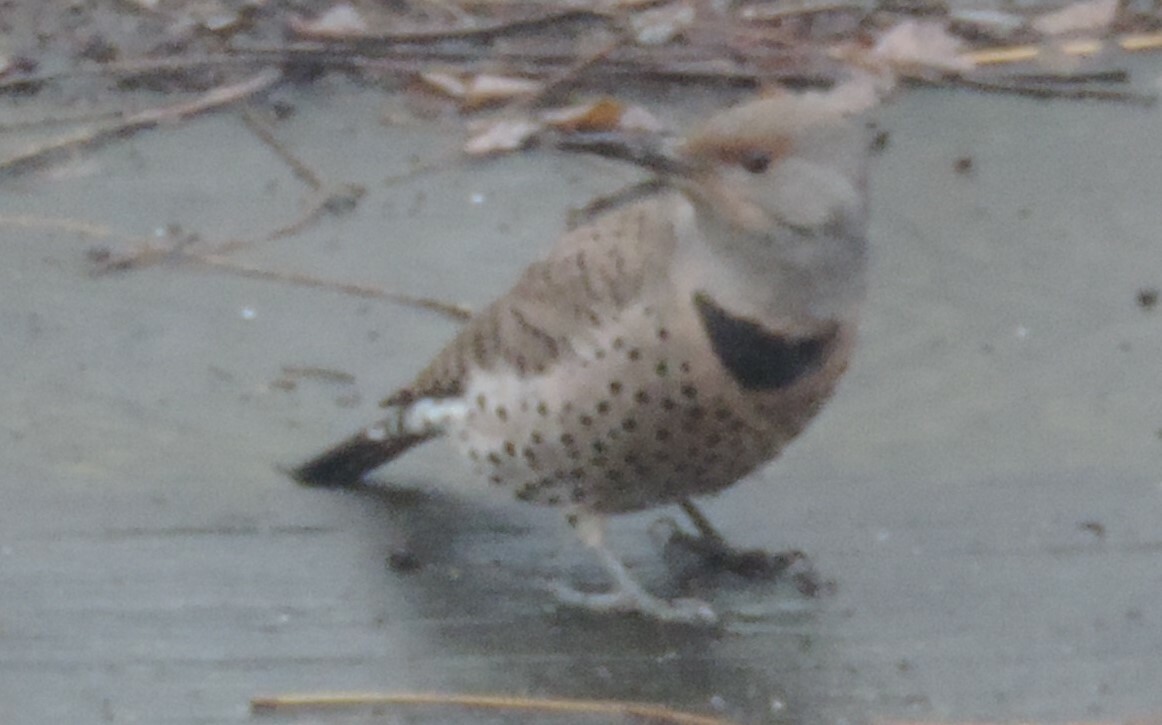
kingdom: Animalia
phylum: Chordata
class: Aves
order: Piciformes
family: Picidae
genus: Colaptes
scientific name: Colaptes auratus
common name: Northern flicker
